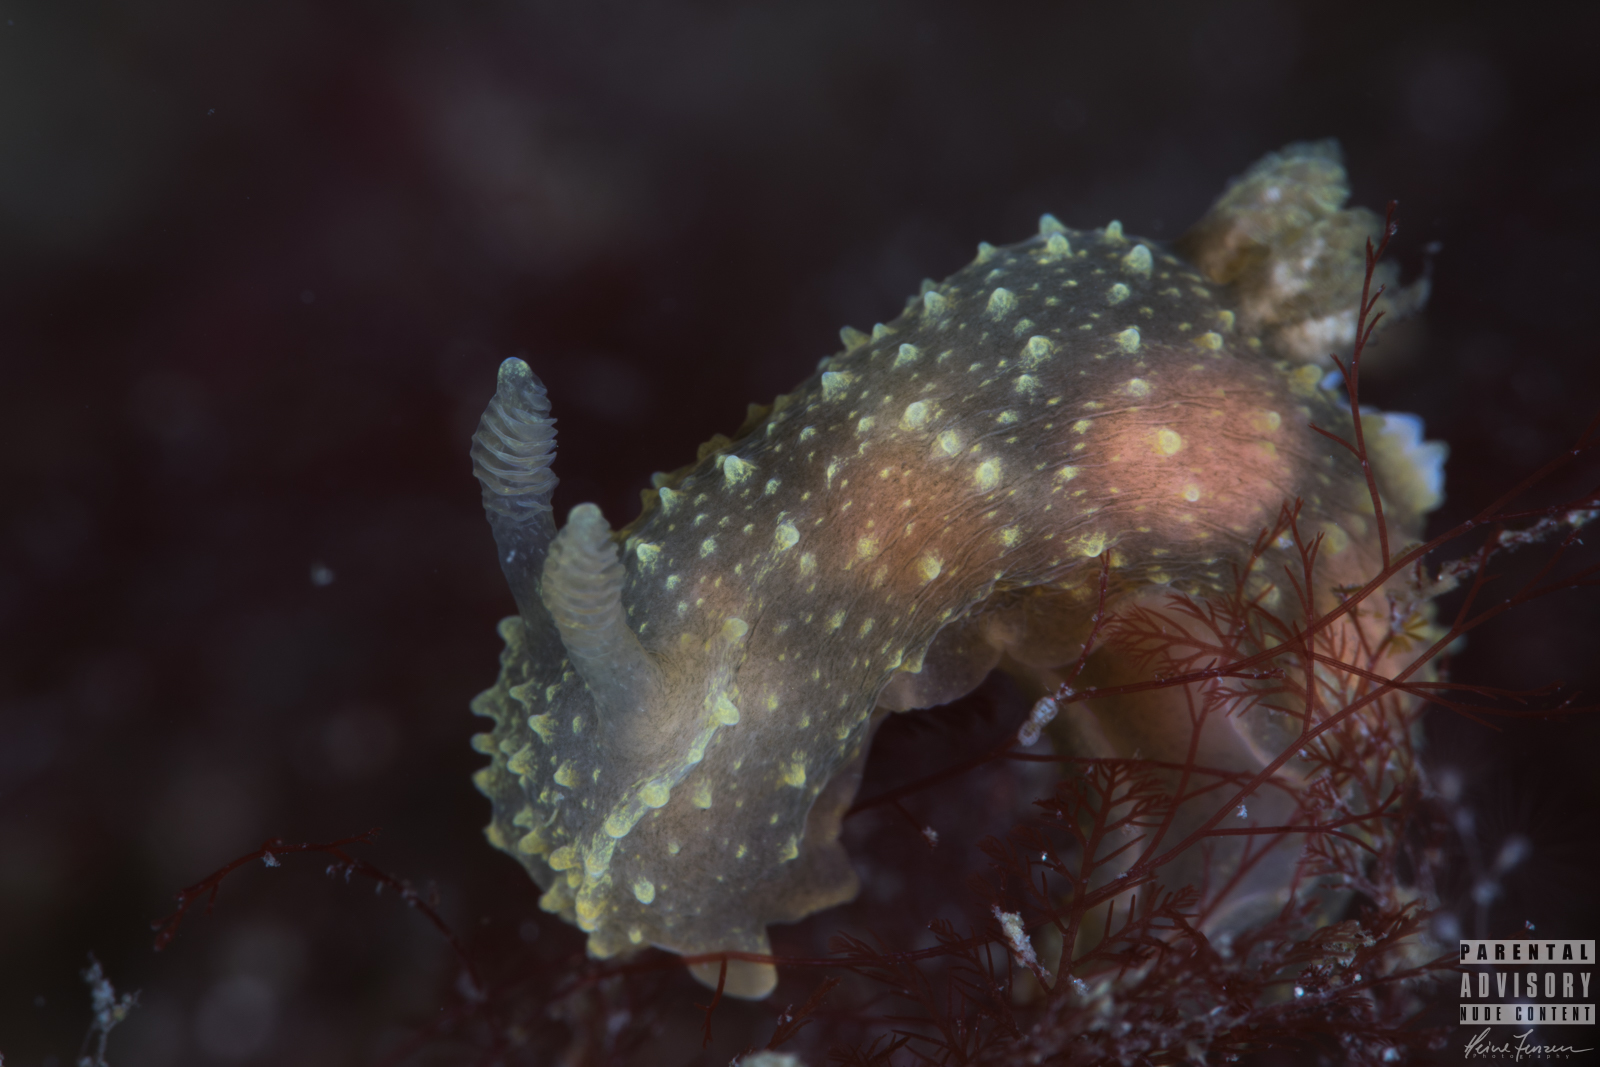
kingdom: Animalia
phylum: Mollusca
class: Gastropoda
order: Nudibranchia
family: Polyceridae
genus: Palio
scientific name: Palio dubia
